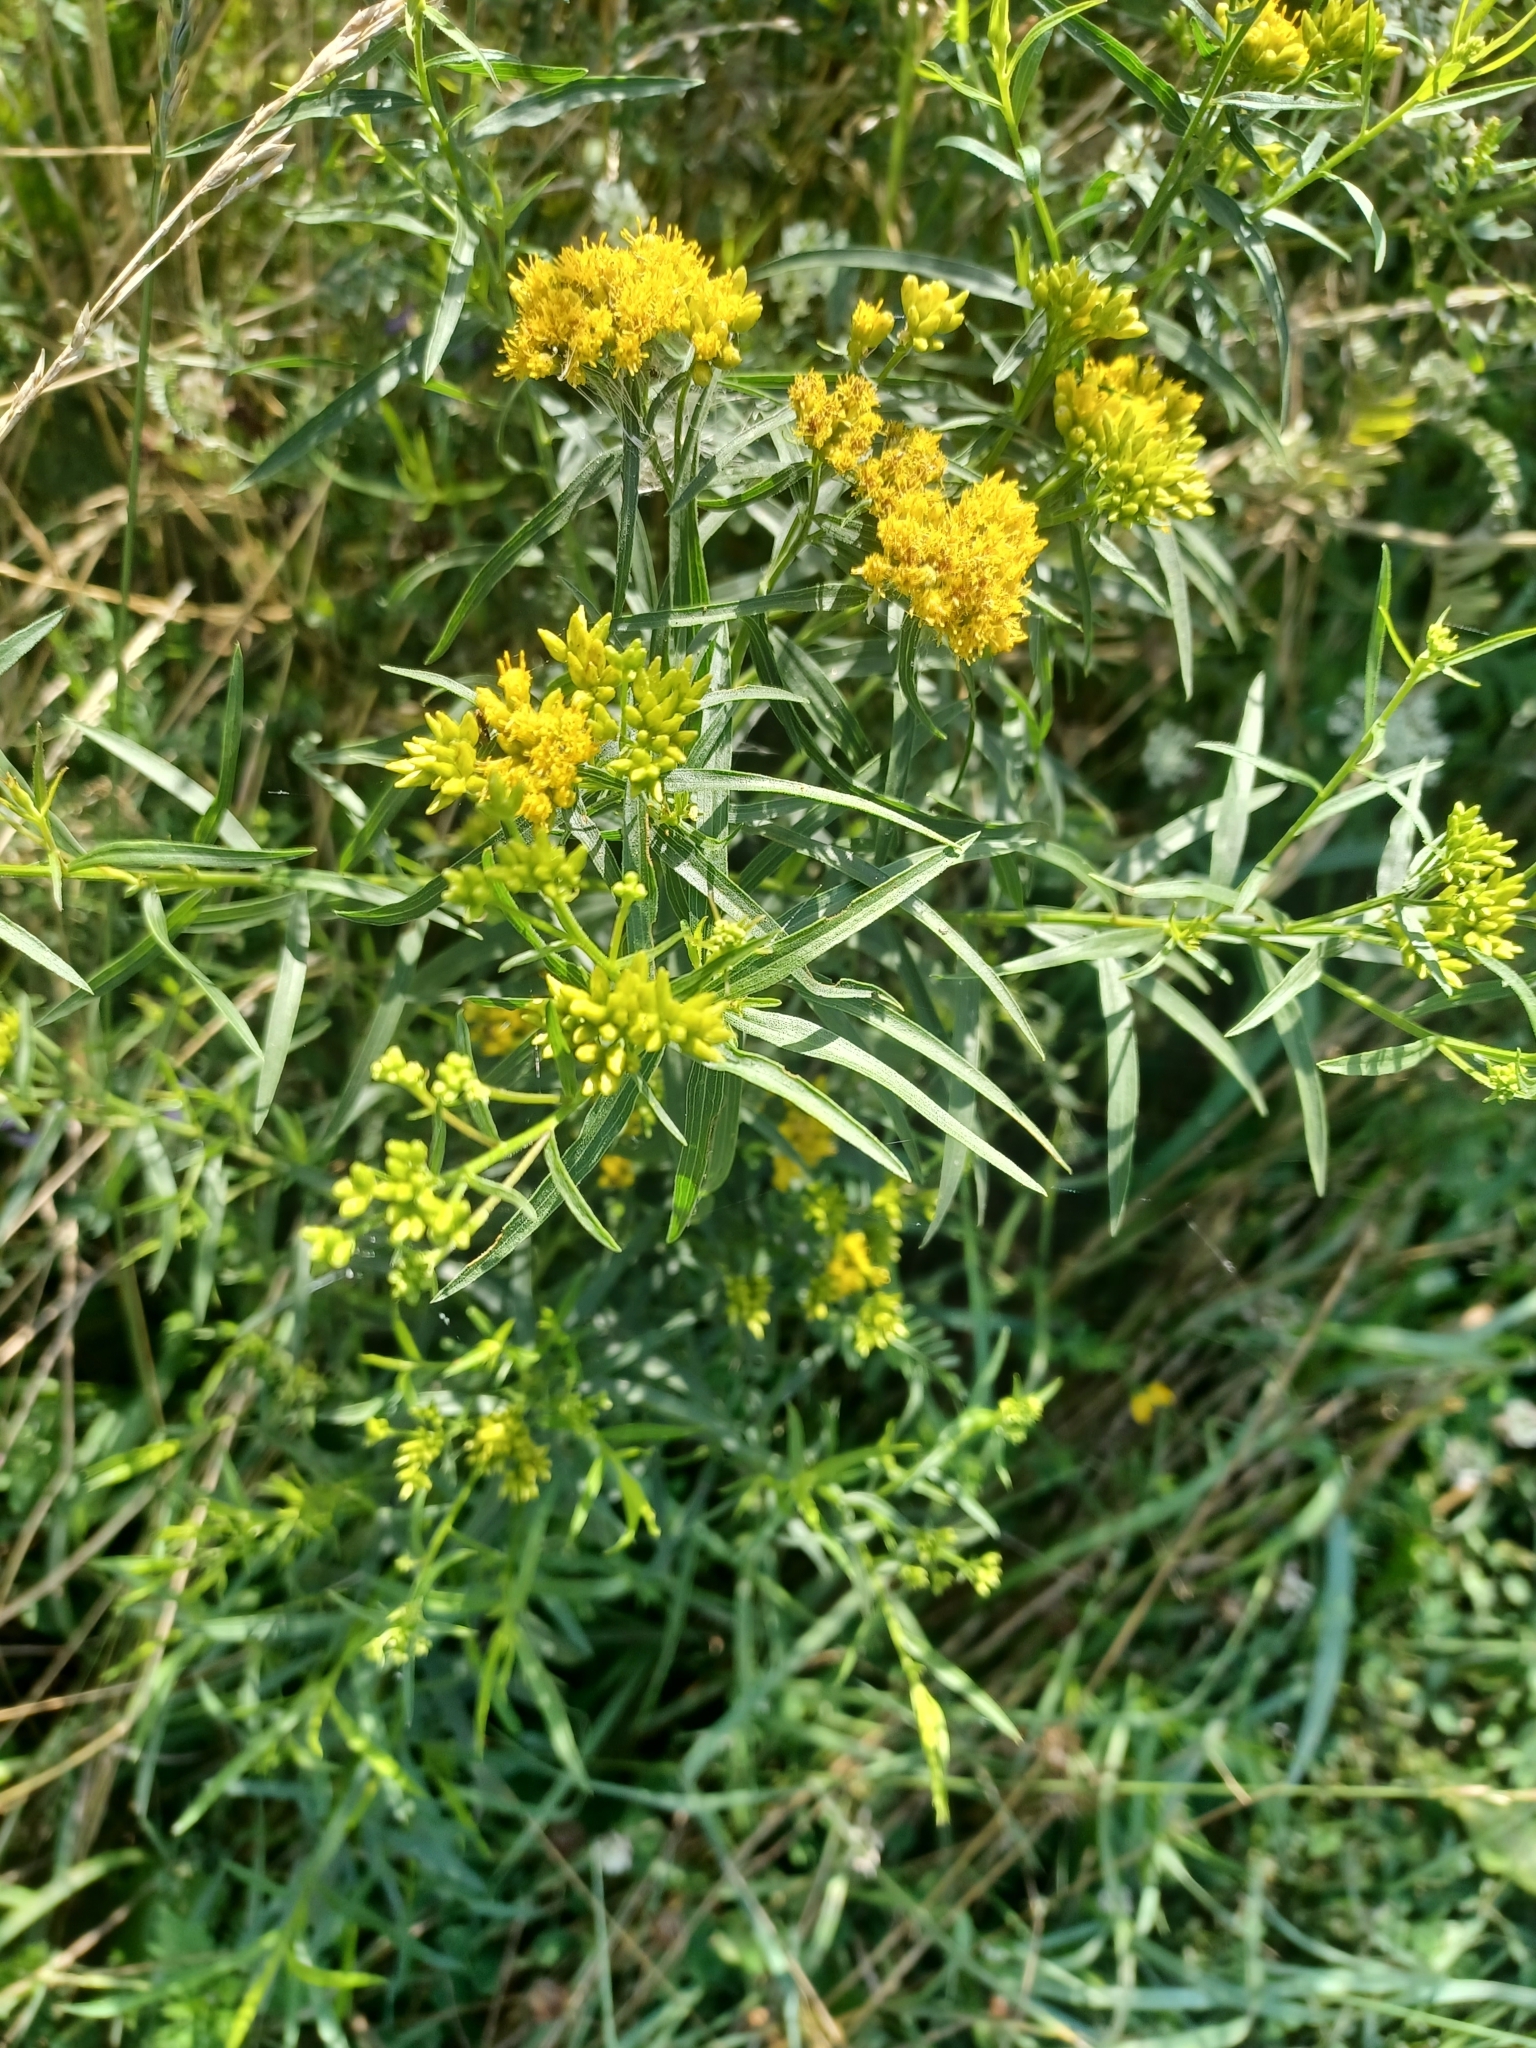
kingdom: Plantae
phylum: Tracheophyta
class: Magnoliopsida
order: Asterales
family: Asteraceae
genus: Euthamia
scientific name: Euthamia graminifolia
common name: Common goldentop
